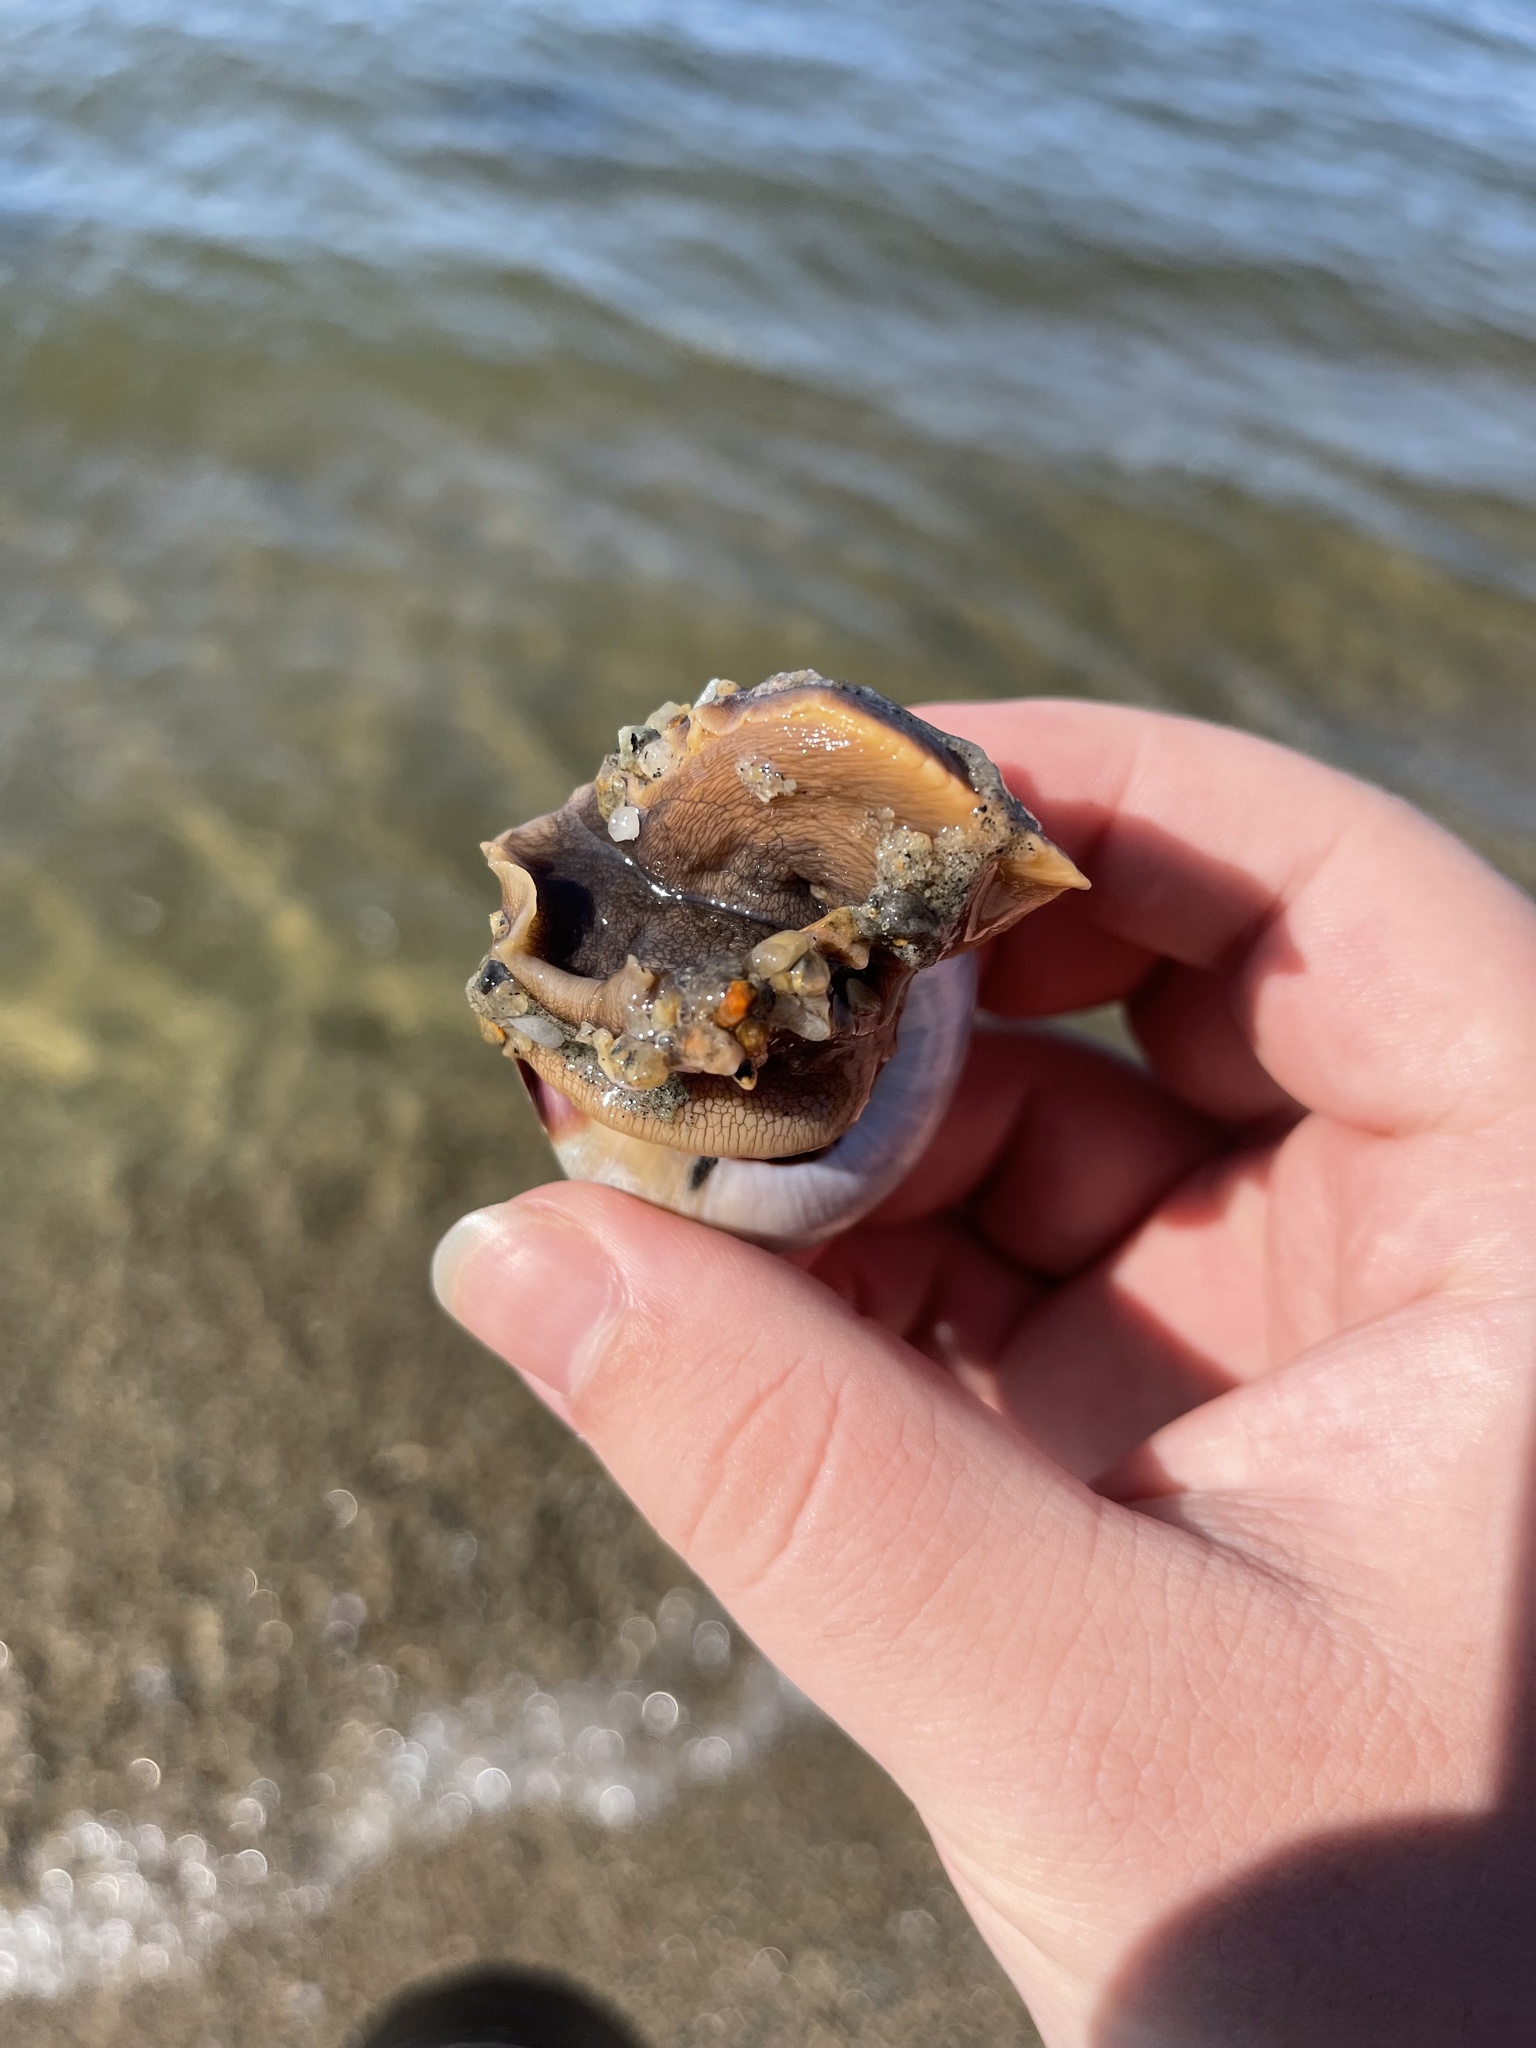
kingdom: Animalia
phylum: Mollusca
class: Gastropoda
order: Littorinimorpha
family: Naticidae
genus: Neverita
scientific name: Neverita duplicata
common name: Lobed moonsnail
